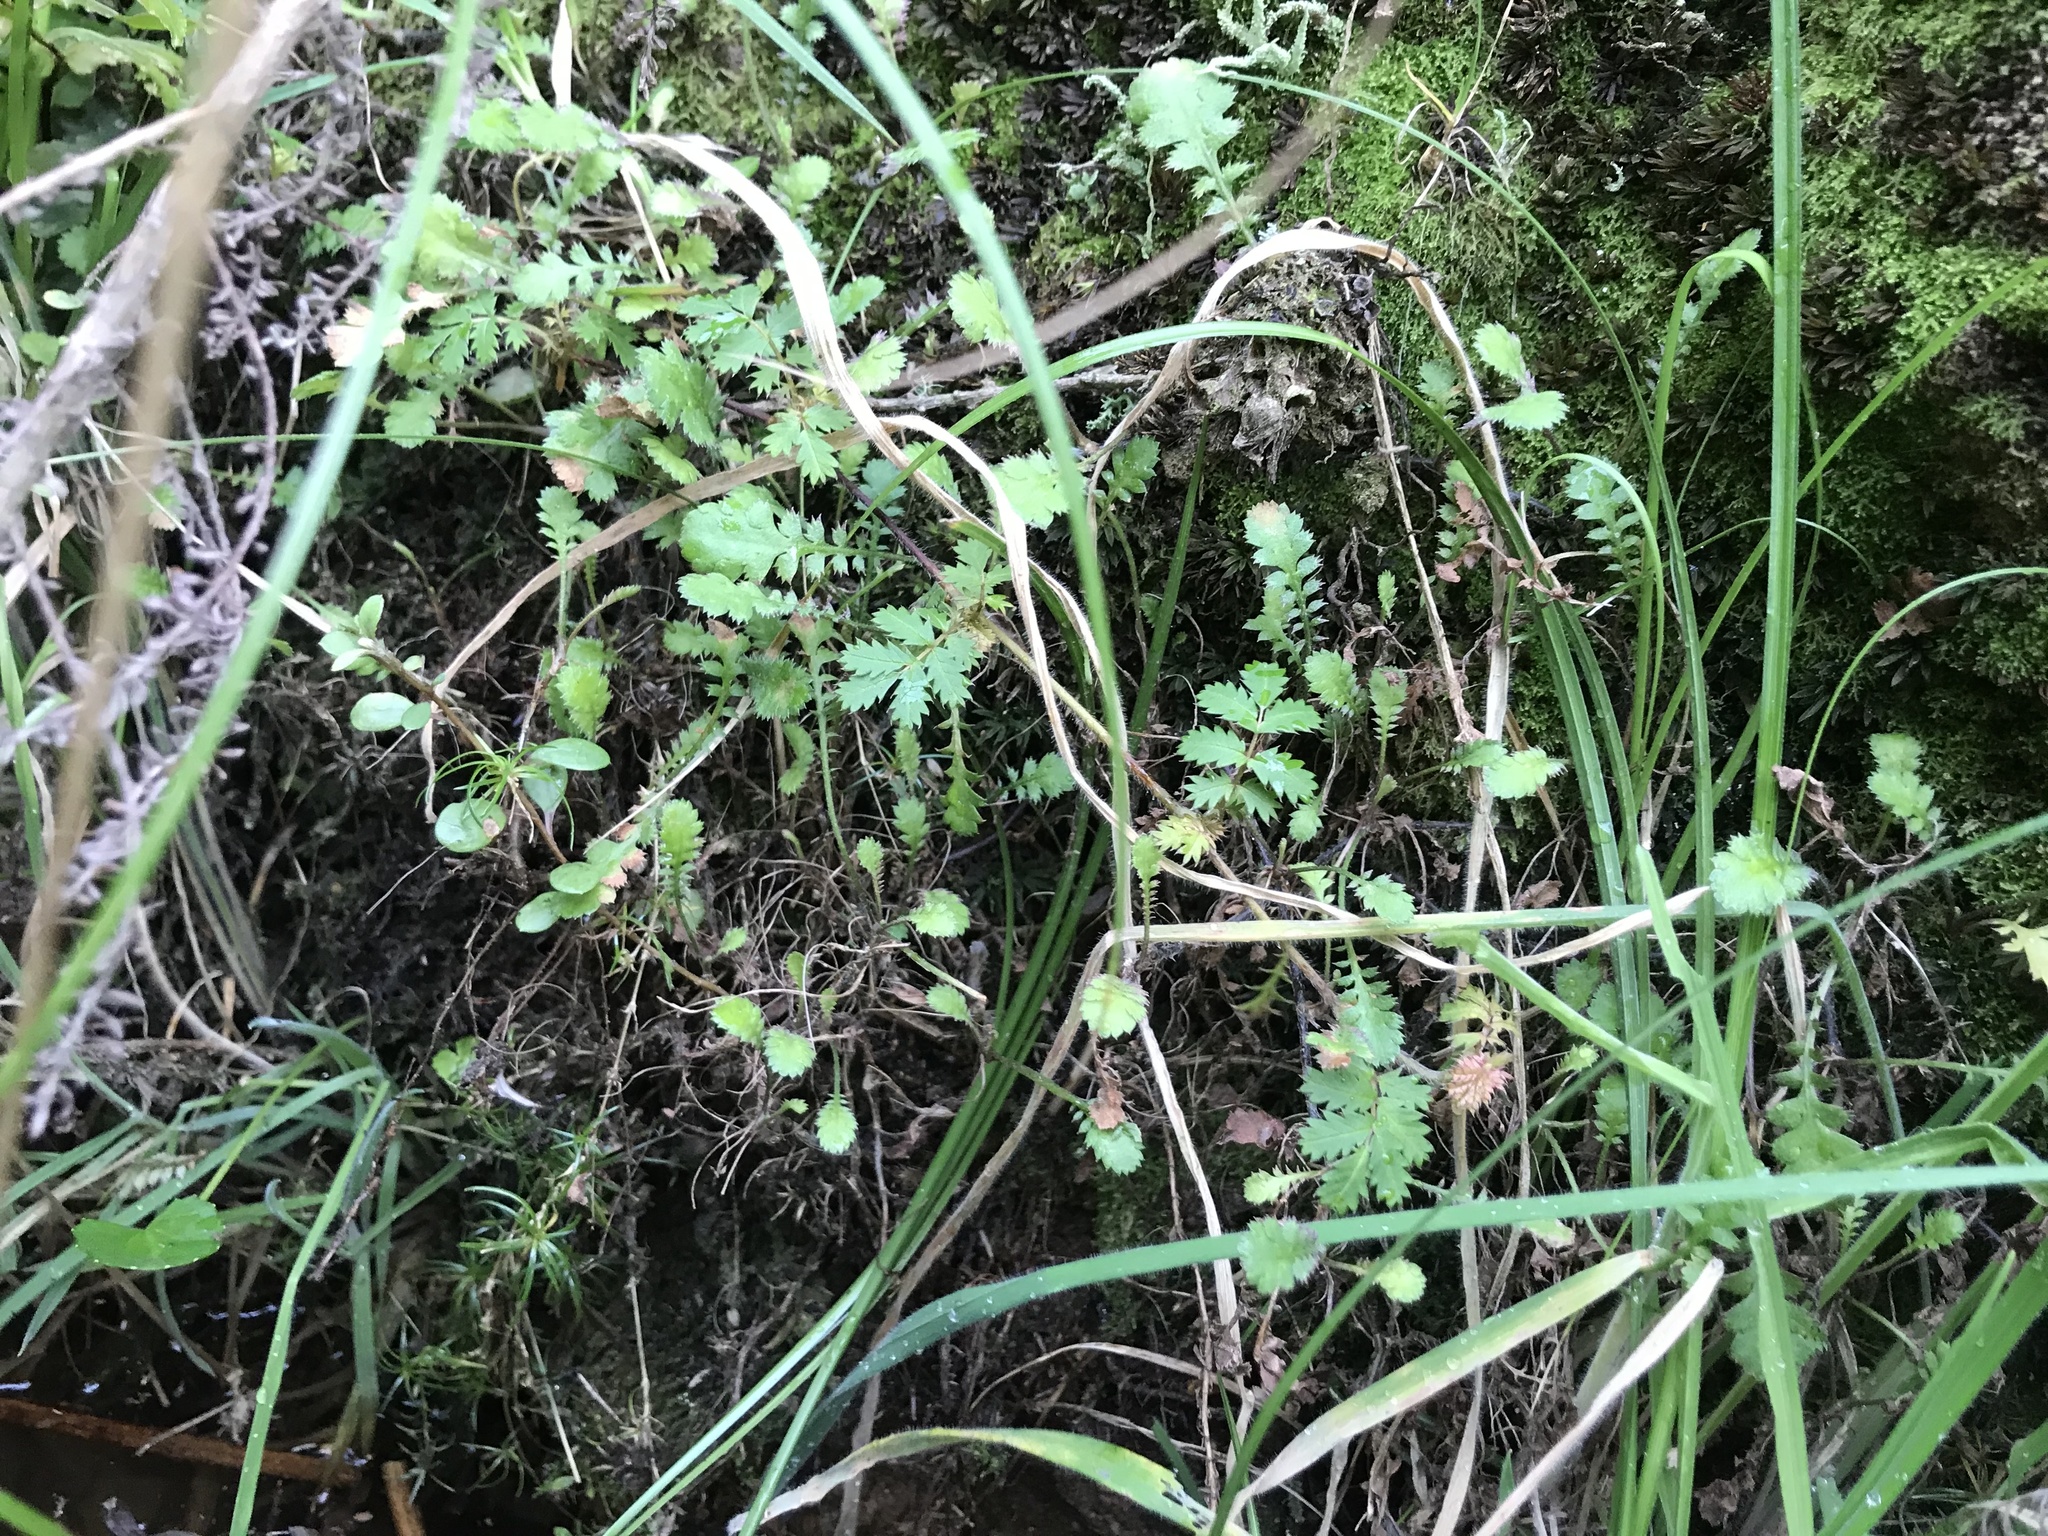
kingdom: Plantae
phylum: Tracheophyta
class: Magnoliopsida
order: Asterales
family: Asteraceae
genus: Leptinella
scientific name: Leptinella squalida
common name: New zealand brass-buttons
